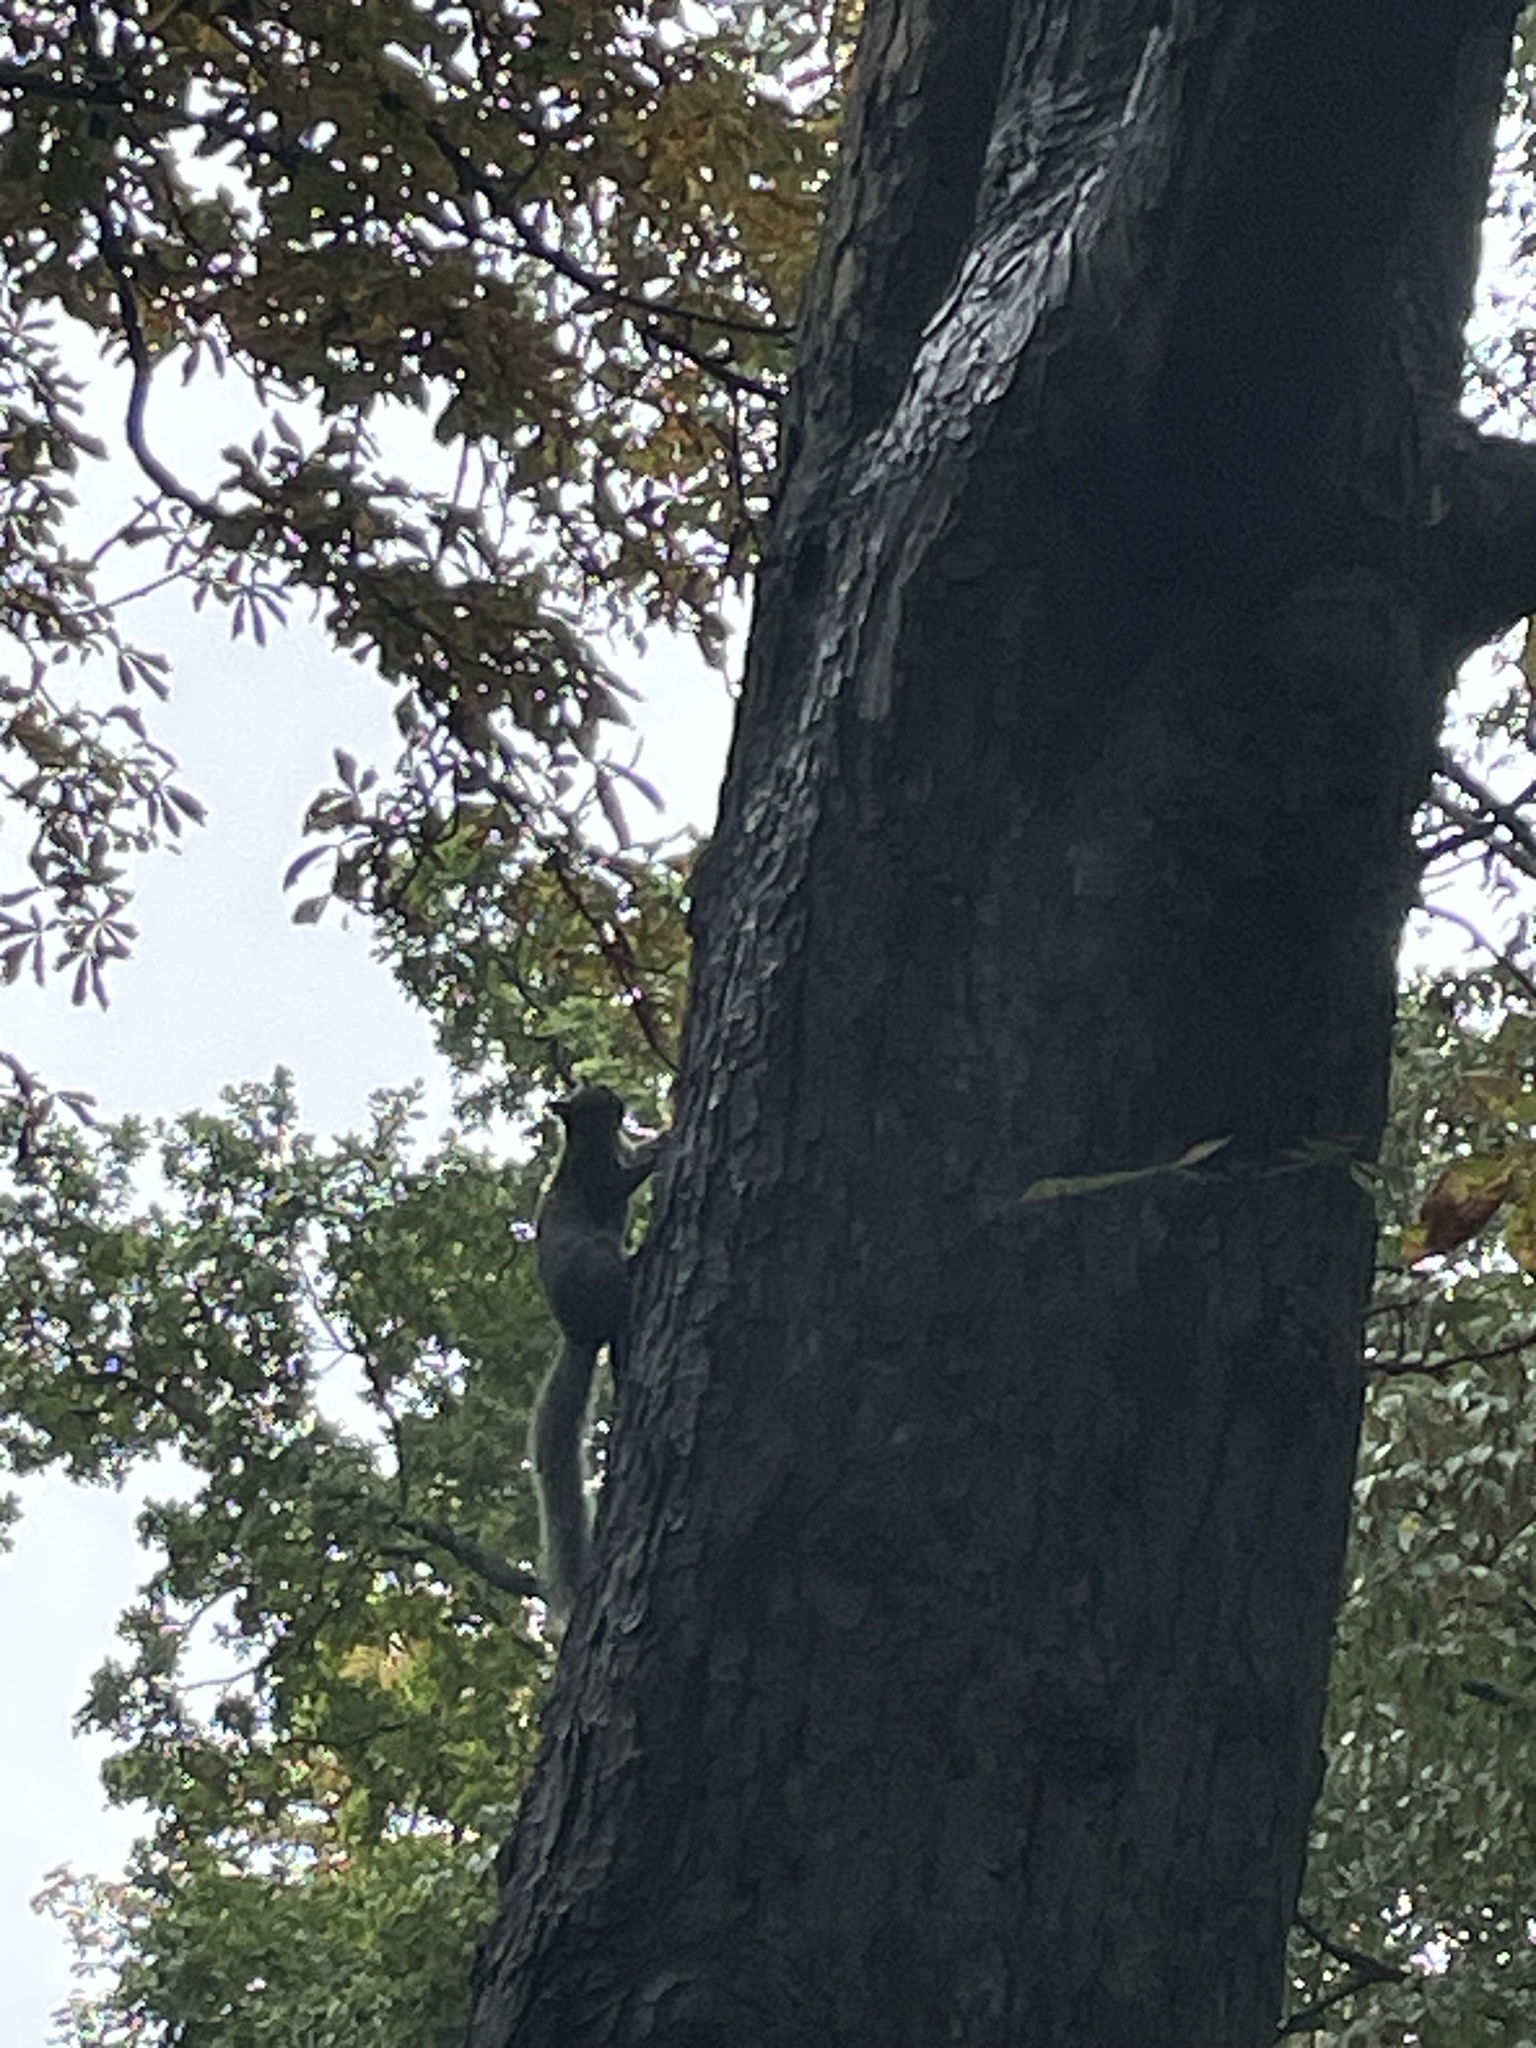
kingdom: Animalia
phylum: Chordata
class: Mammalia
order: Rodentia
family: Sciuridae
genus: Sciurus
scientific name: Sciurus carolinensis
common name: Eastern gray squirrel
